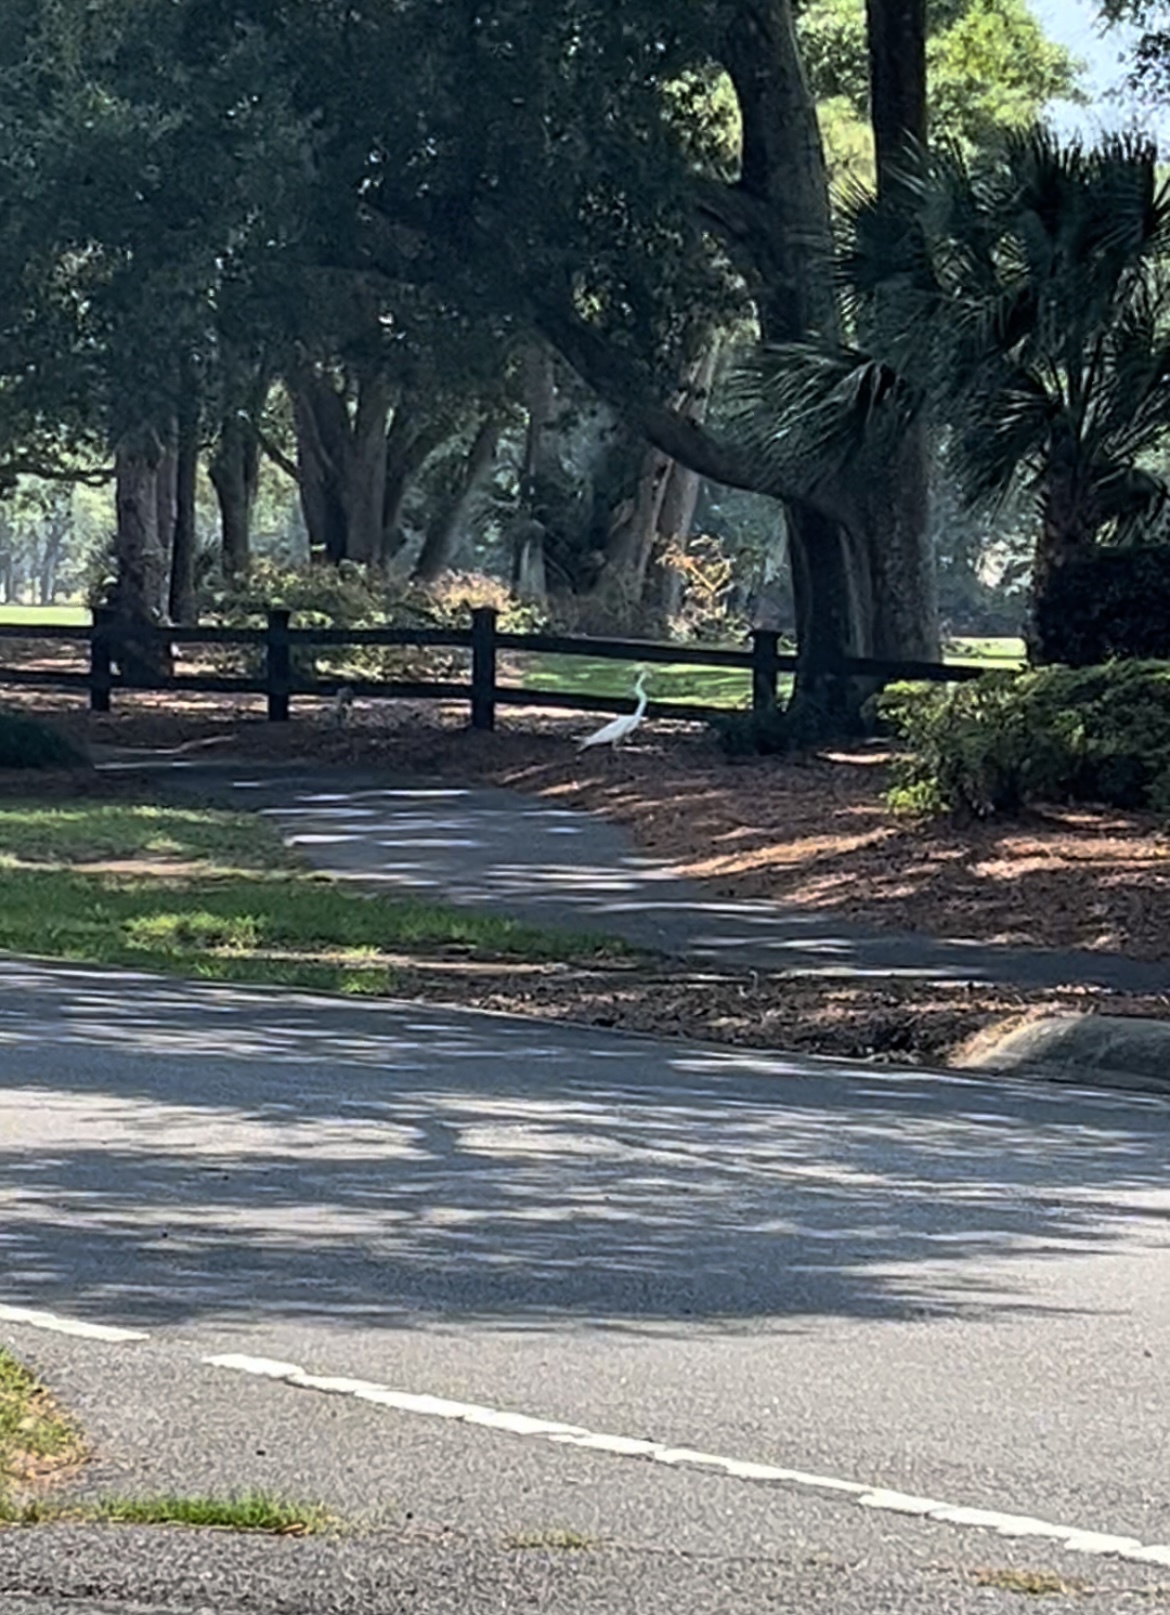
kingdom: Animalia
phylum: Chordata
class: Aves
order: Pelecaniformes
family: Ardeidae
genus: Ardea
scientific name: Ardea alba
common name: Great egret
